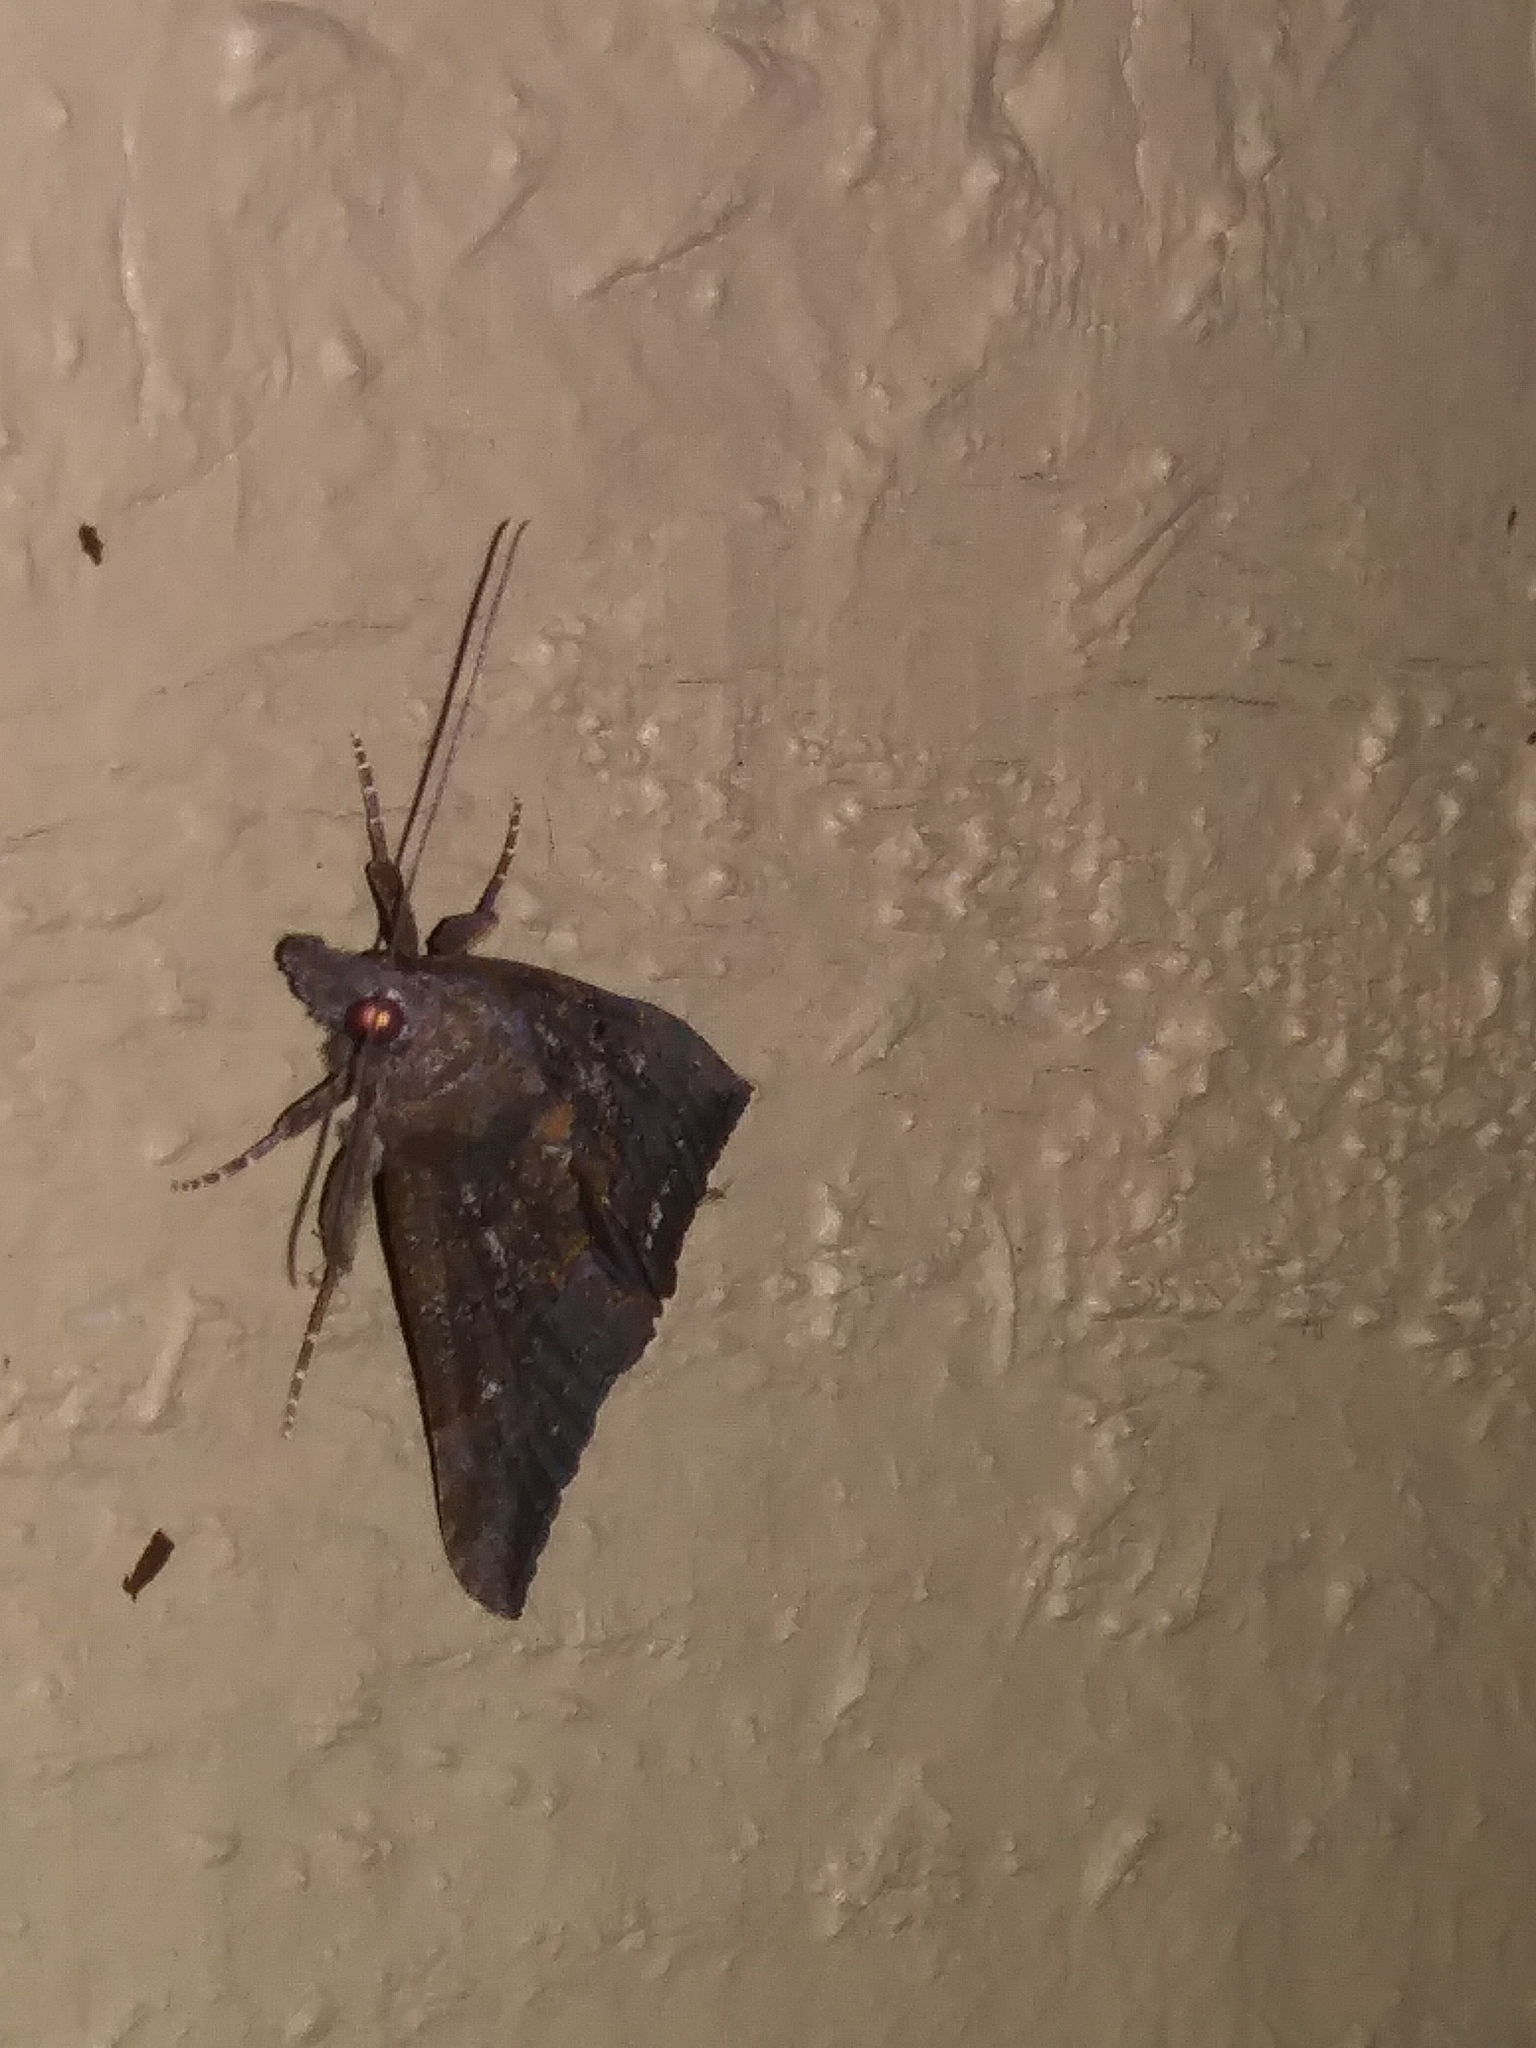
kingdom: Animalia
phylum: Arthropoda
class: Insecta
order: Lepidoptera
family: Erebidae
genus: Hypena
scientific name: Hypena scabra
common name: Green cloverworm
